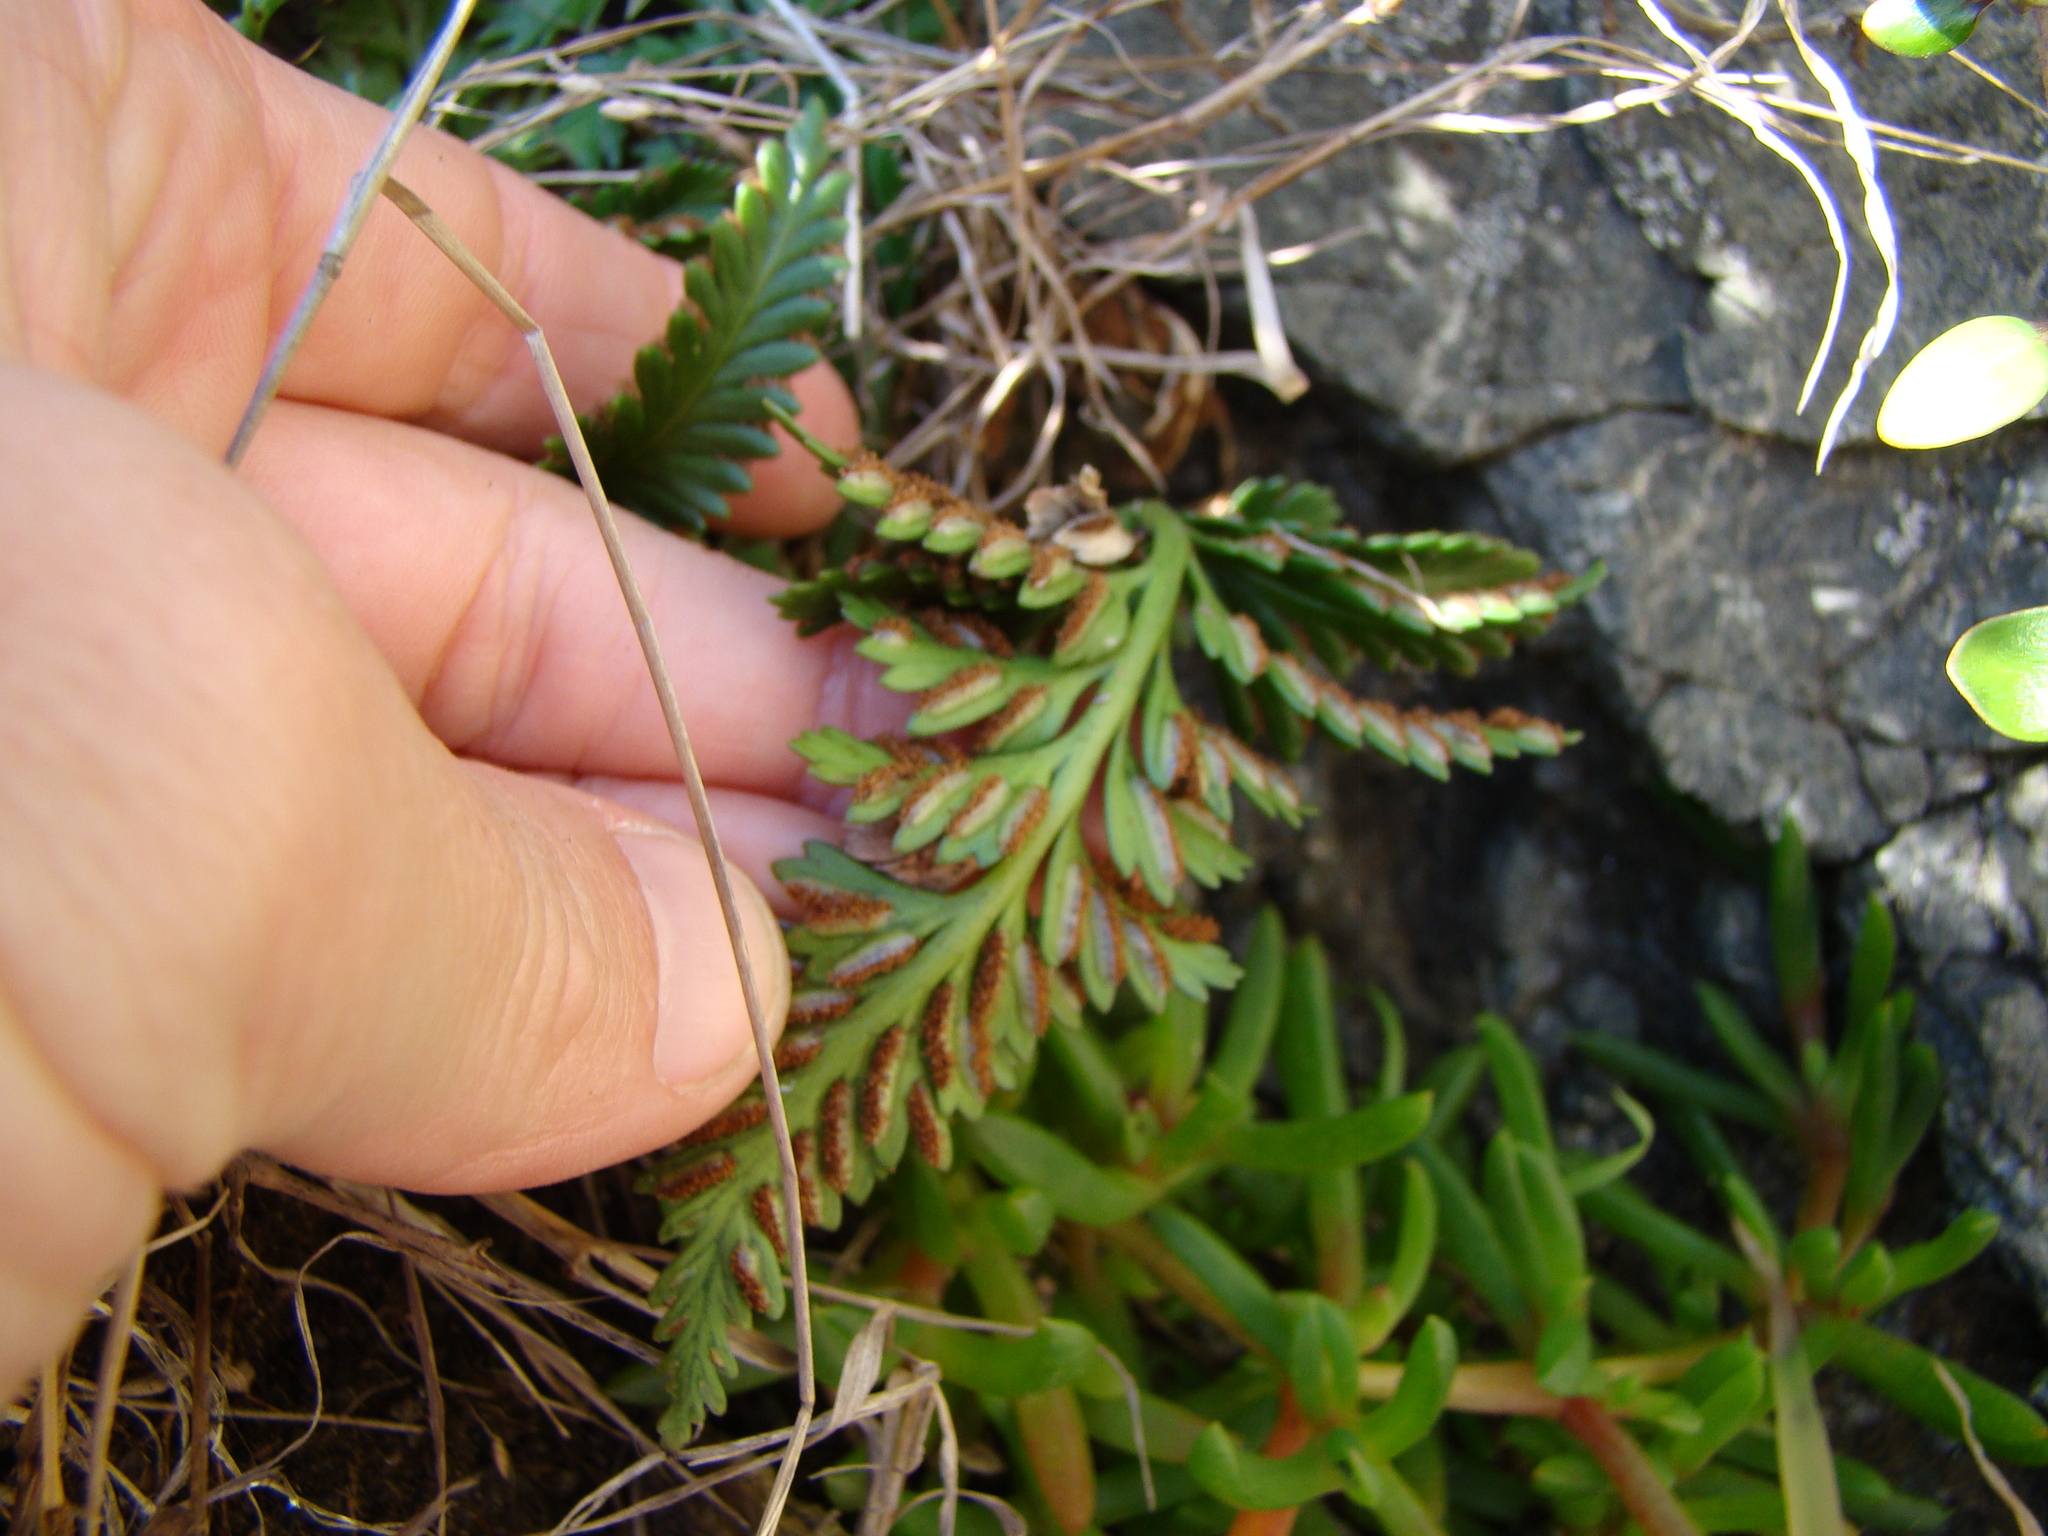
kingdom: Plantae
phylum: Tracheophyta
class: Polypodiopsida
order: Polypodiales
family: Aspleniaceae
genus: Asplenium
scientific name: Asplenium appendiculatum
